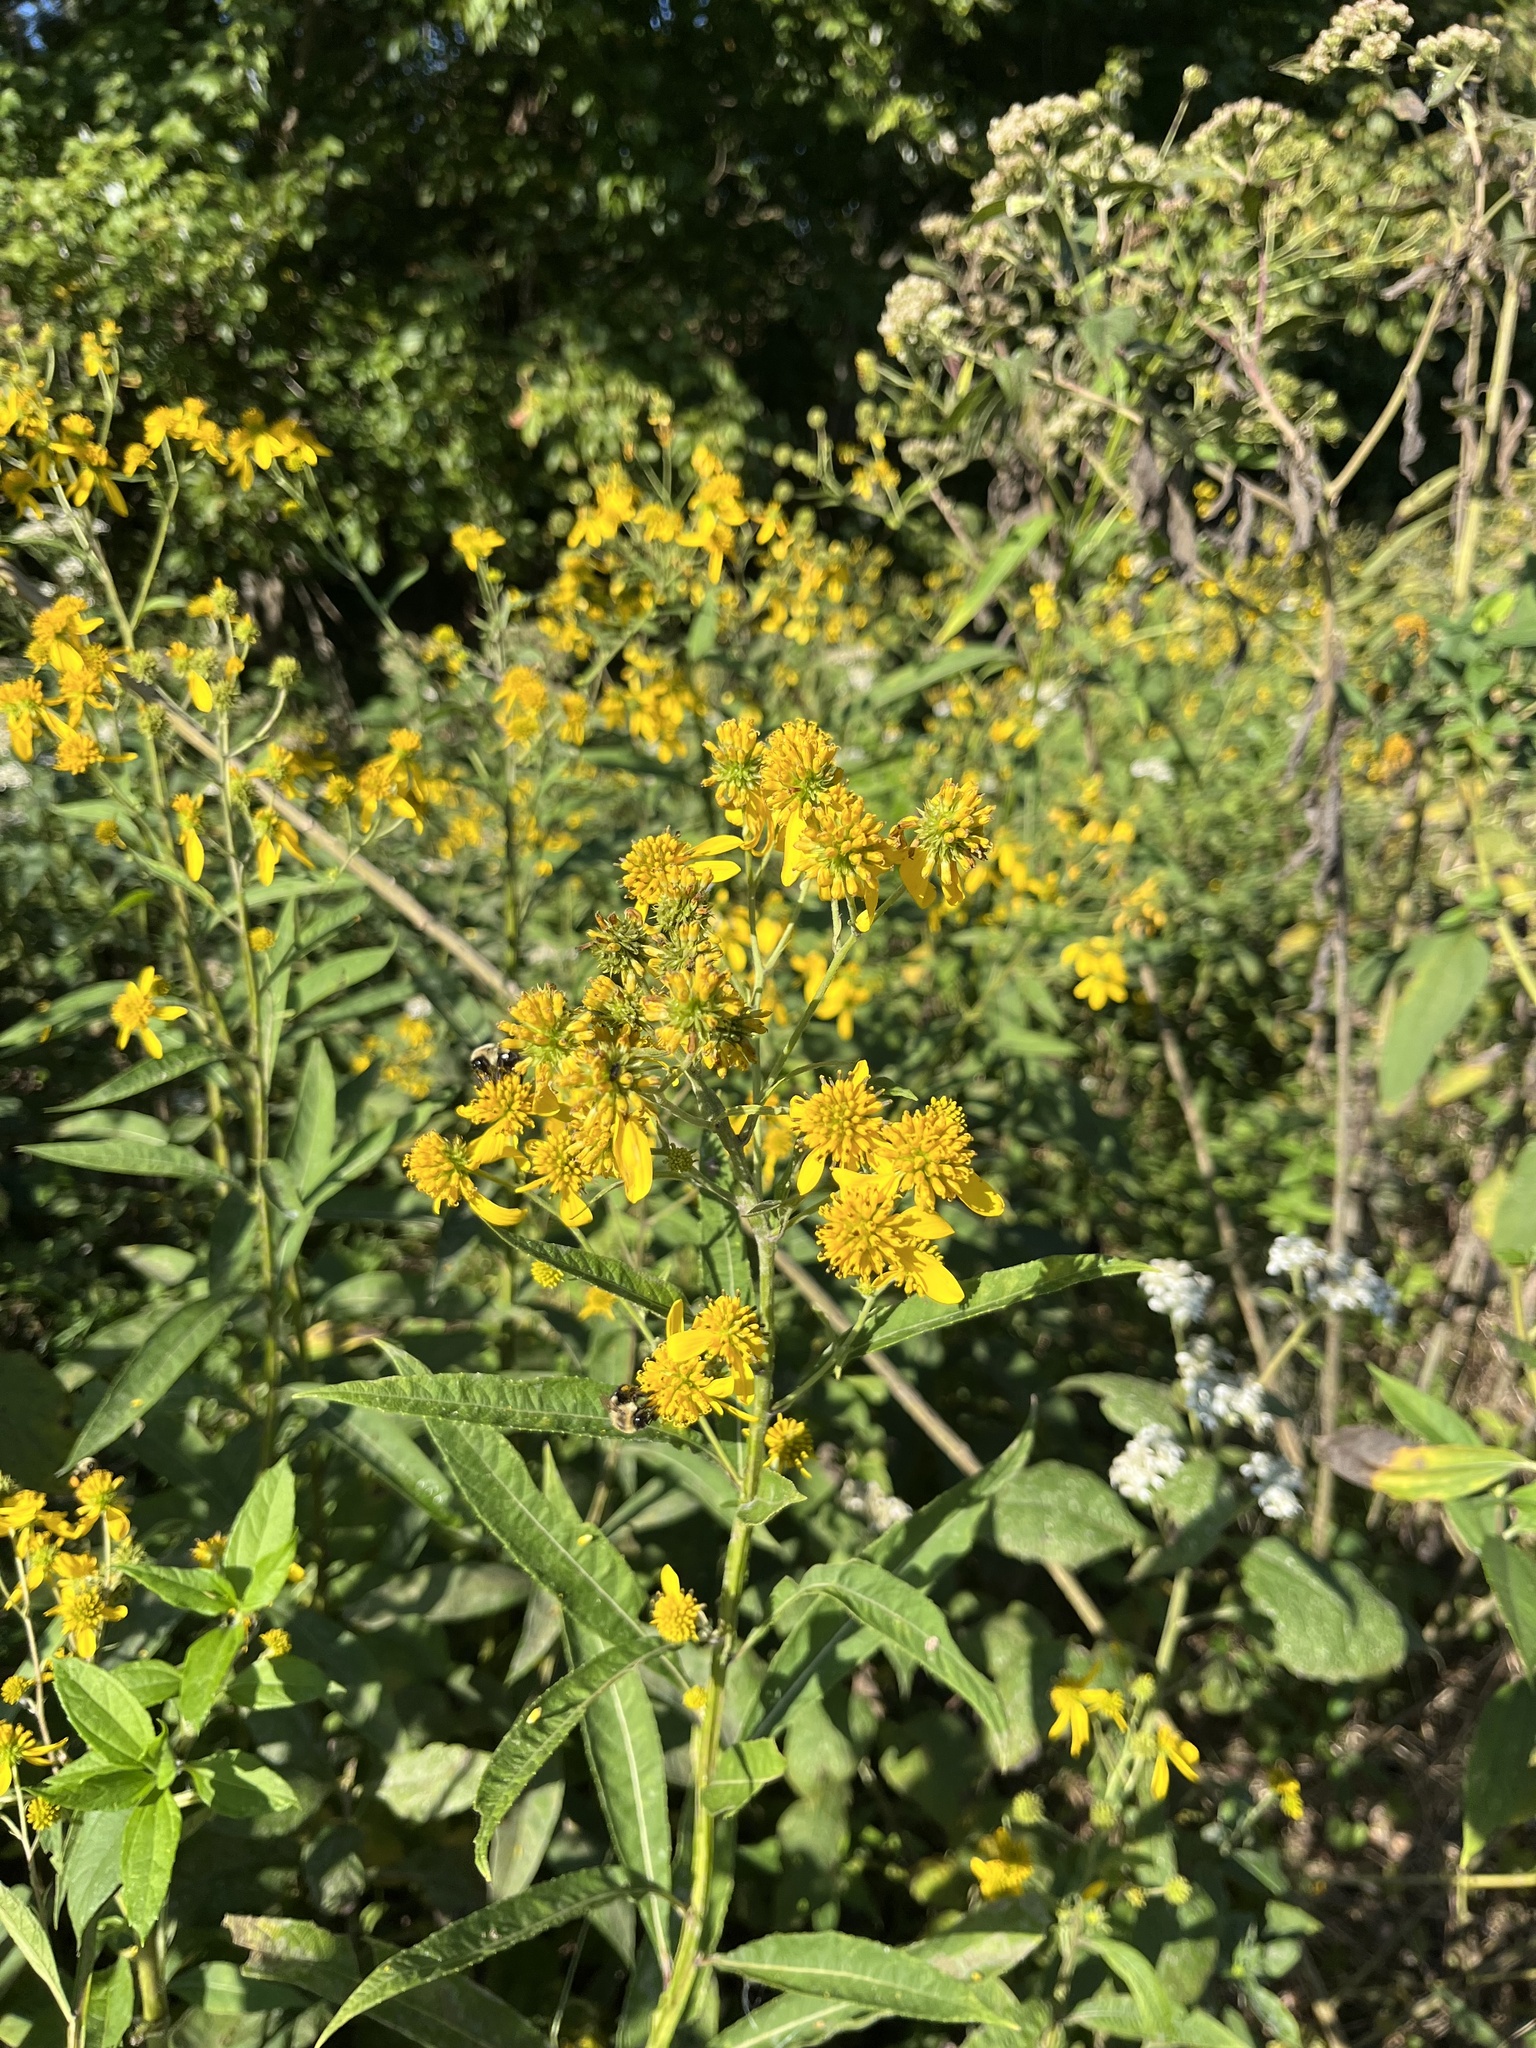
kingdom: Plantae
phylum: Tracheophyta
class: Magnoliopsida
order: Asterales
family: Asteraceae
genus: Verbesina
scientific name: Verbesina alternifolia
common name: Wingstem
